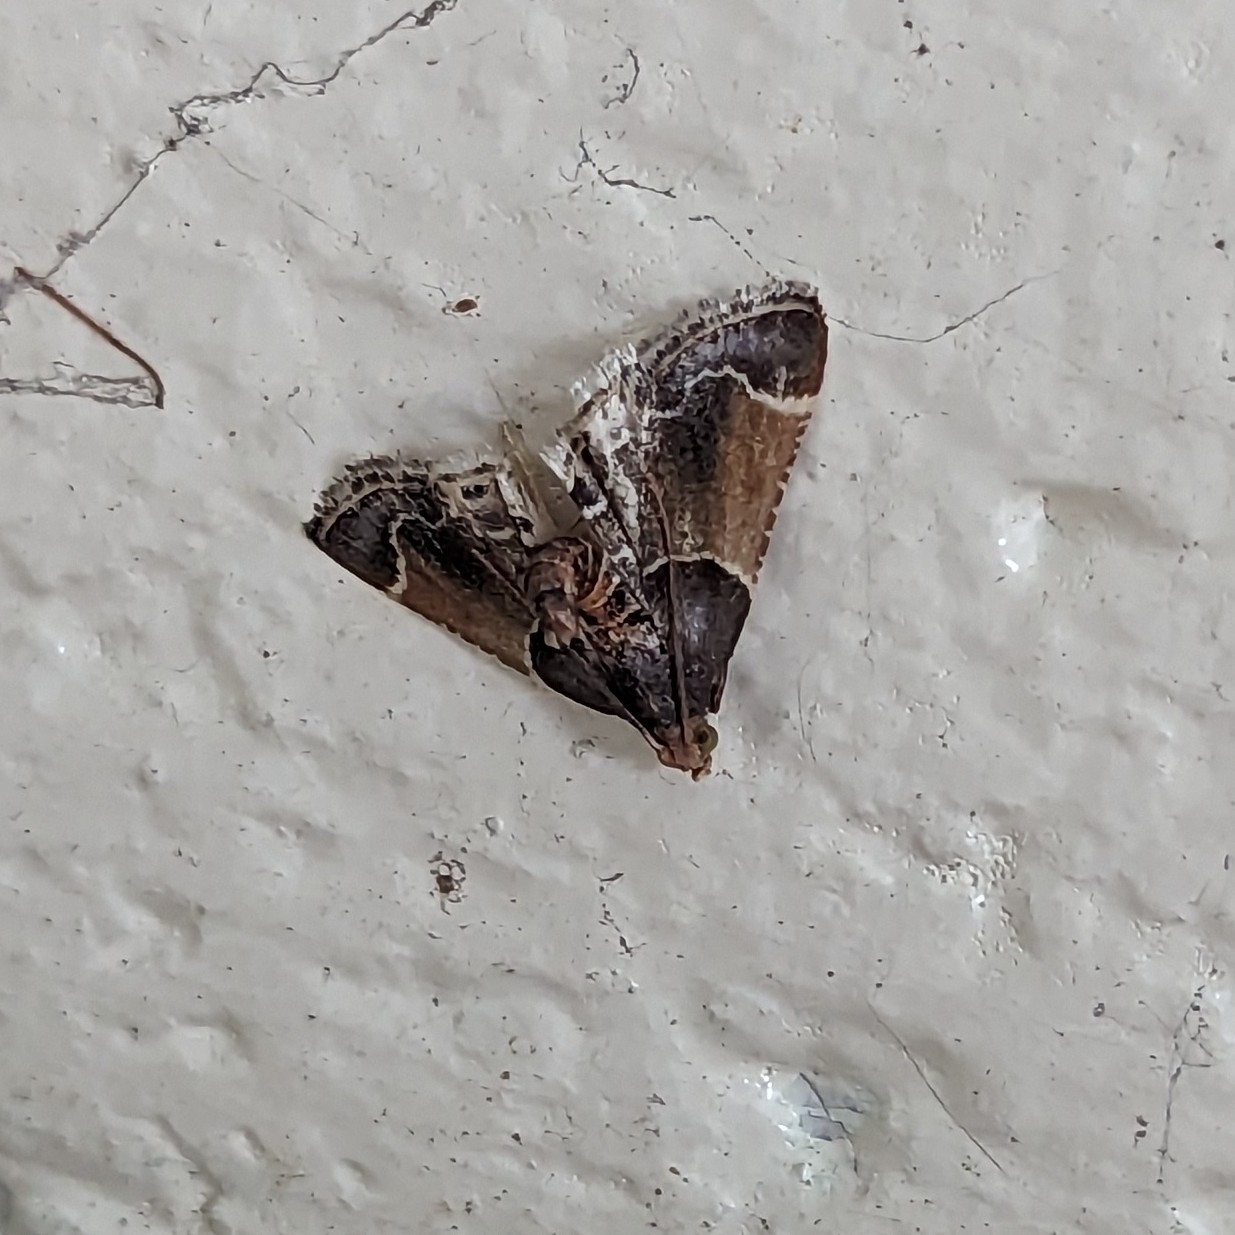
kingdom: Animalia
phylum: Arthropoda
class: Insecta
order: Lepidoptera
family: Pyralidae
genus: Pyralis
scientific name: Pyralis farinalis
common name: Meal moth
